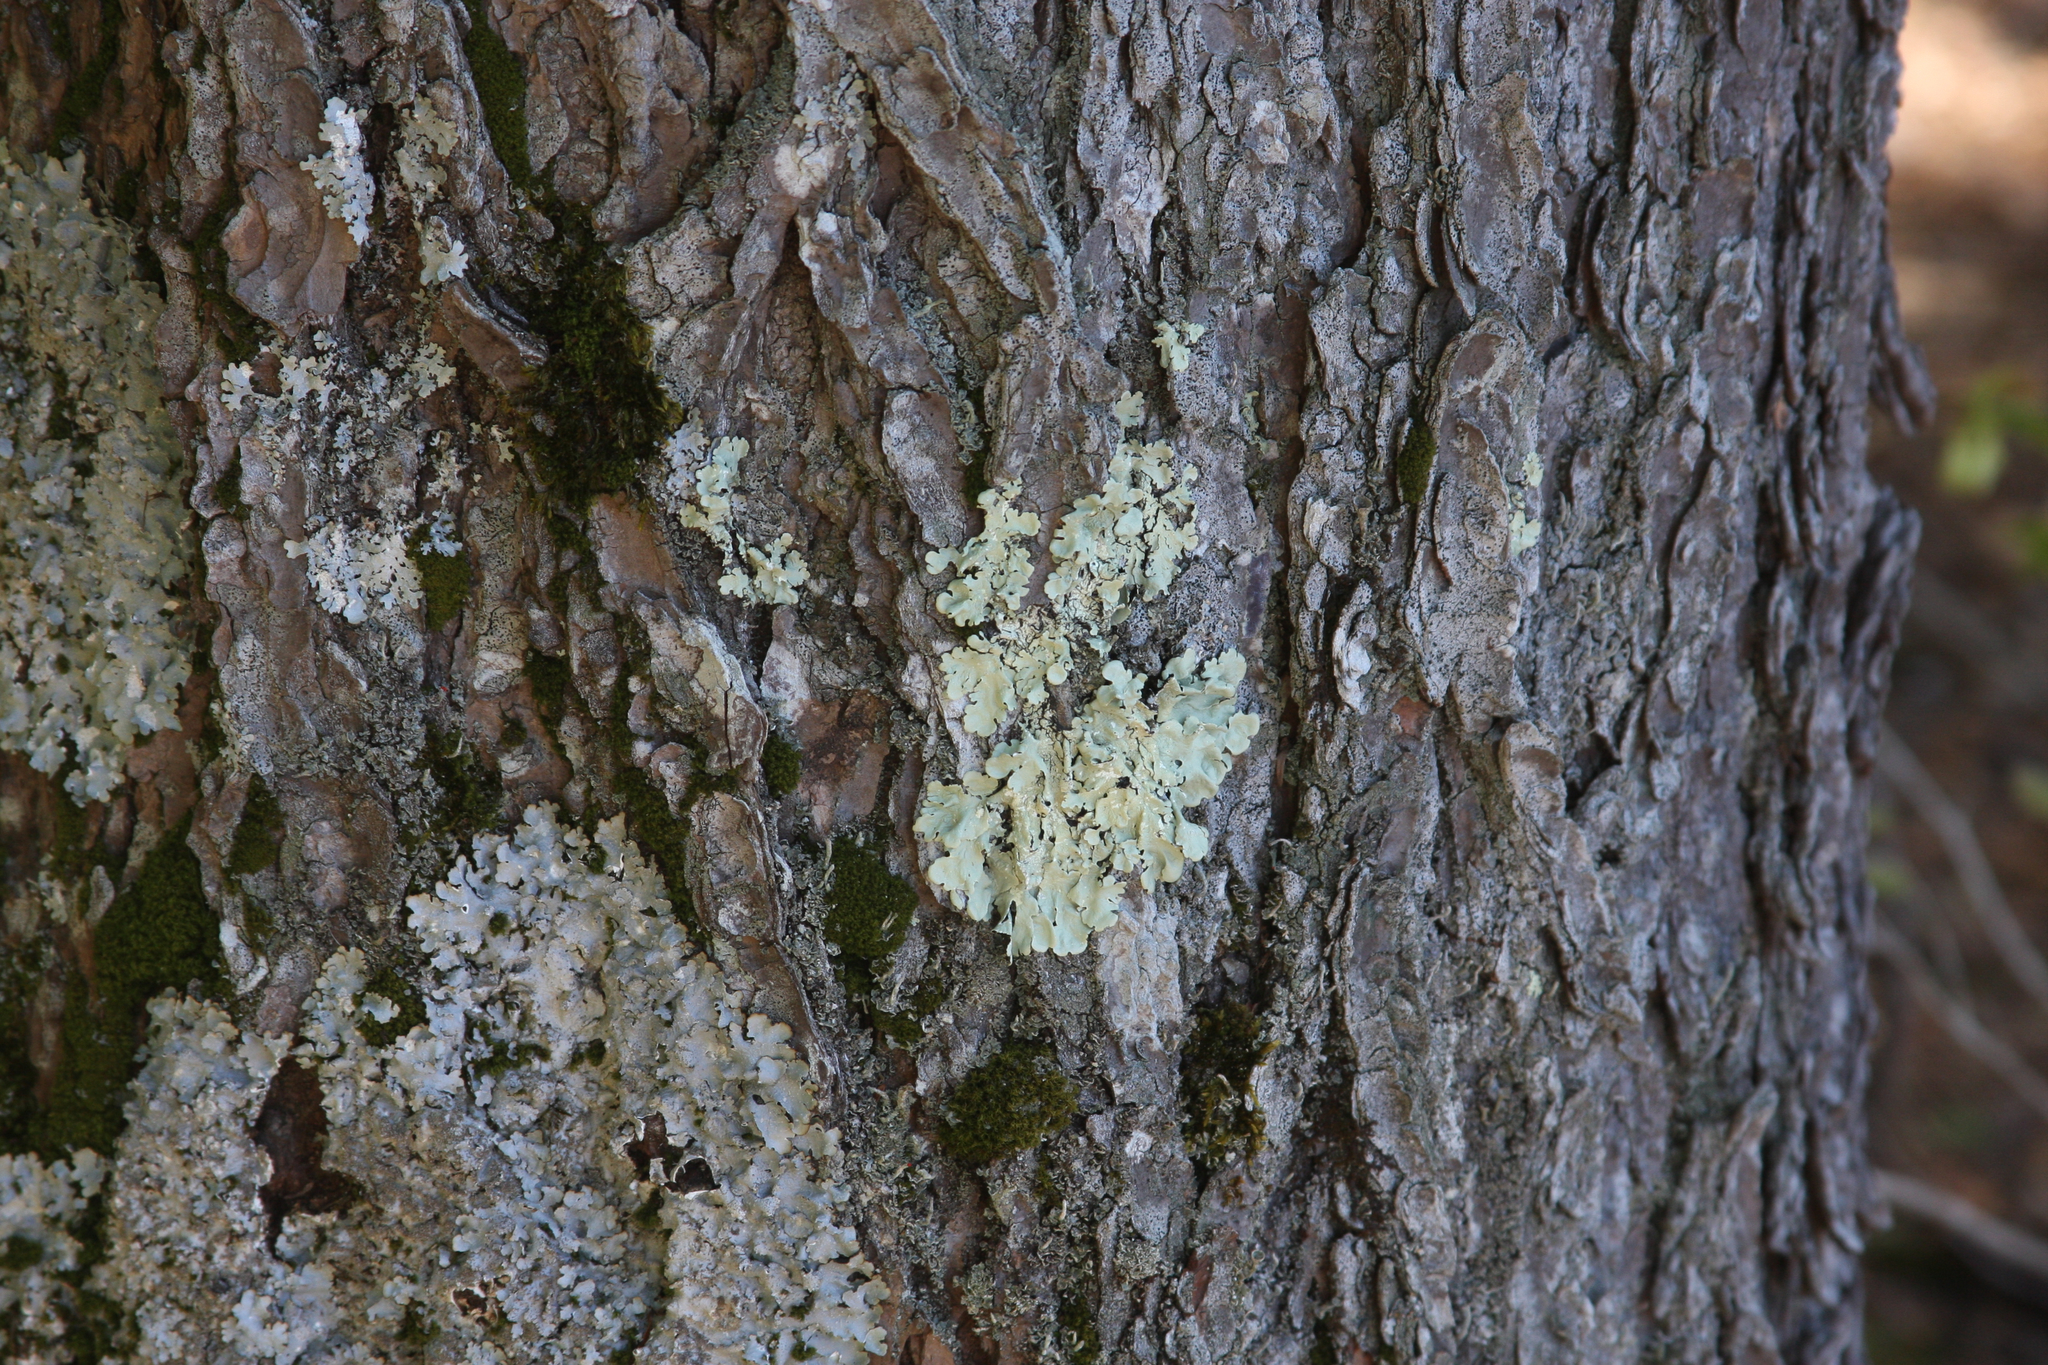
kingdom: Fungi
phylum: Ascomycota
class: Lecanoromycetes
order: Lecanorales
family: Parmeliaceae
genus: Flavoparmelia
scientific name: Flavoparmelia caperata
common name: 40-mile per hour lichen
